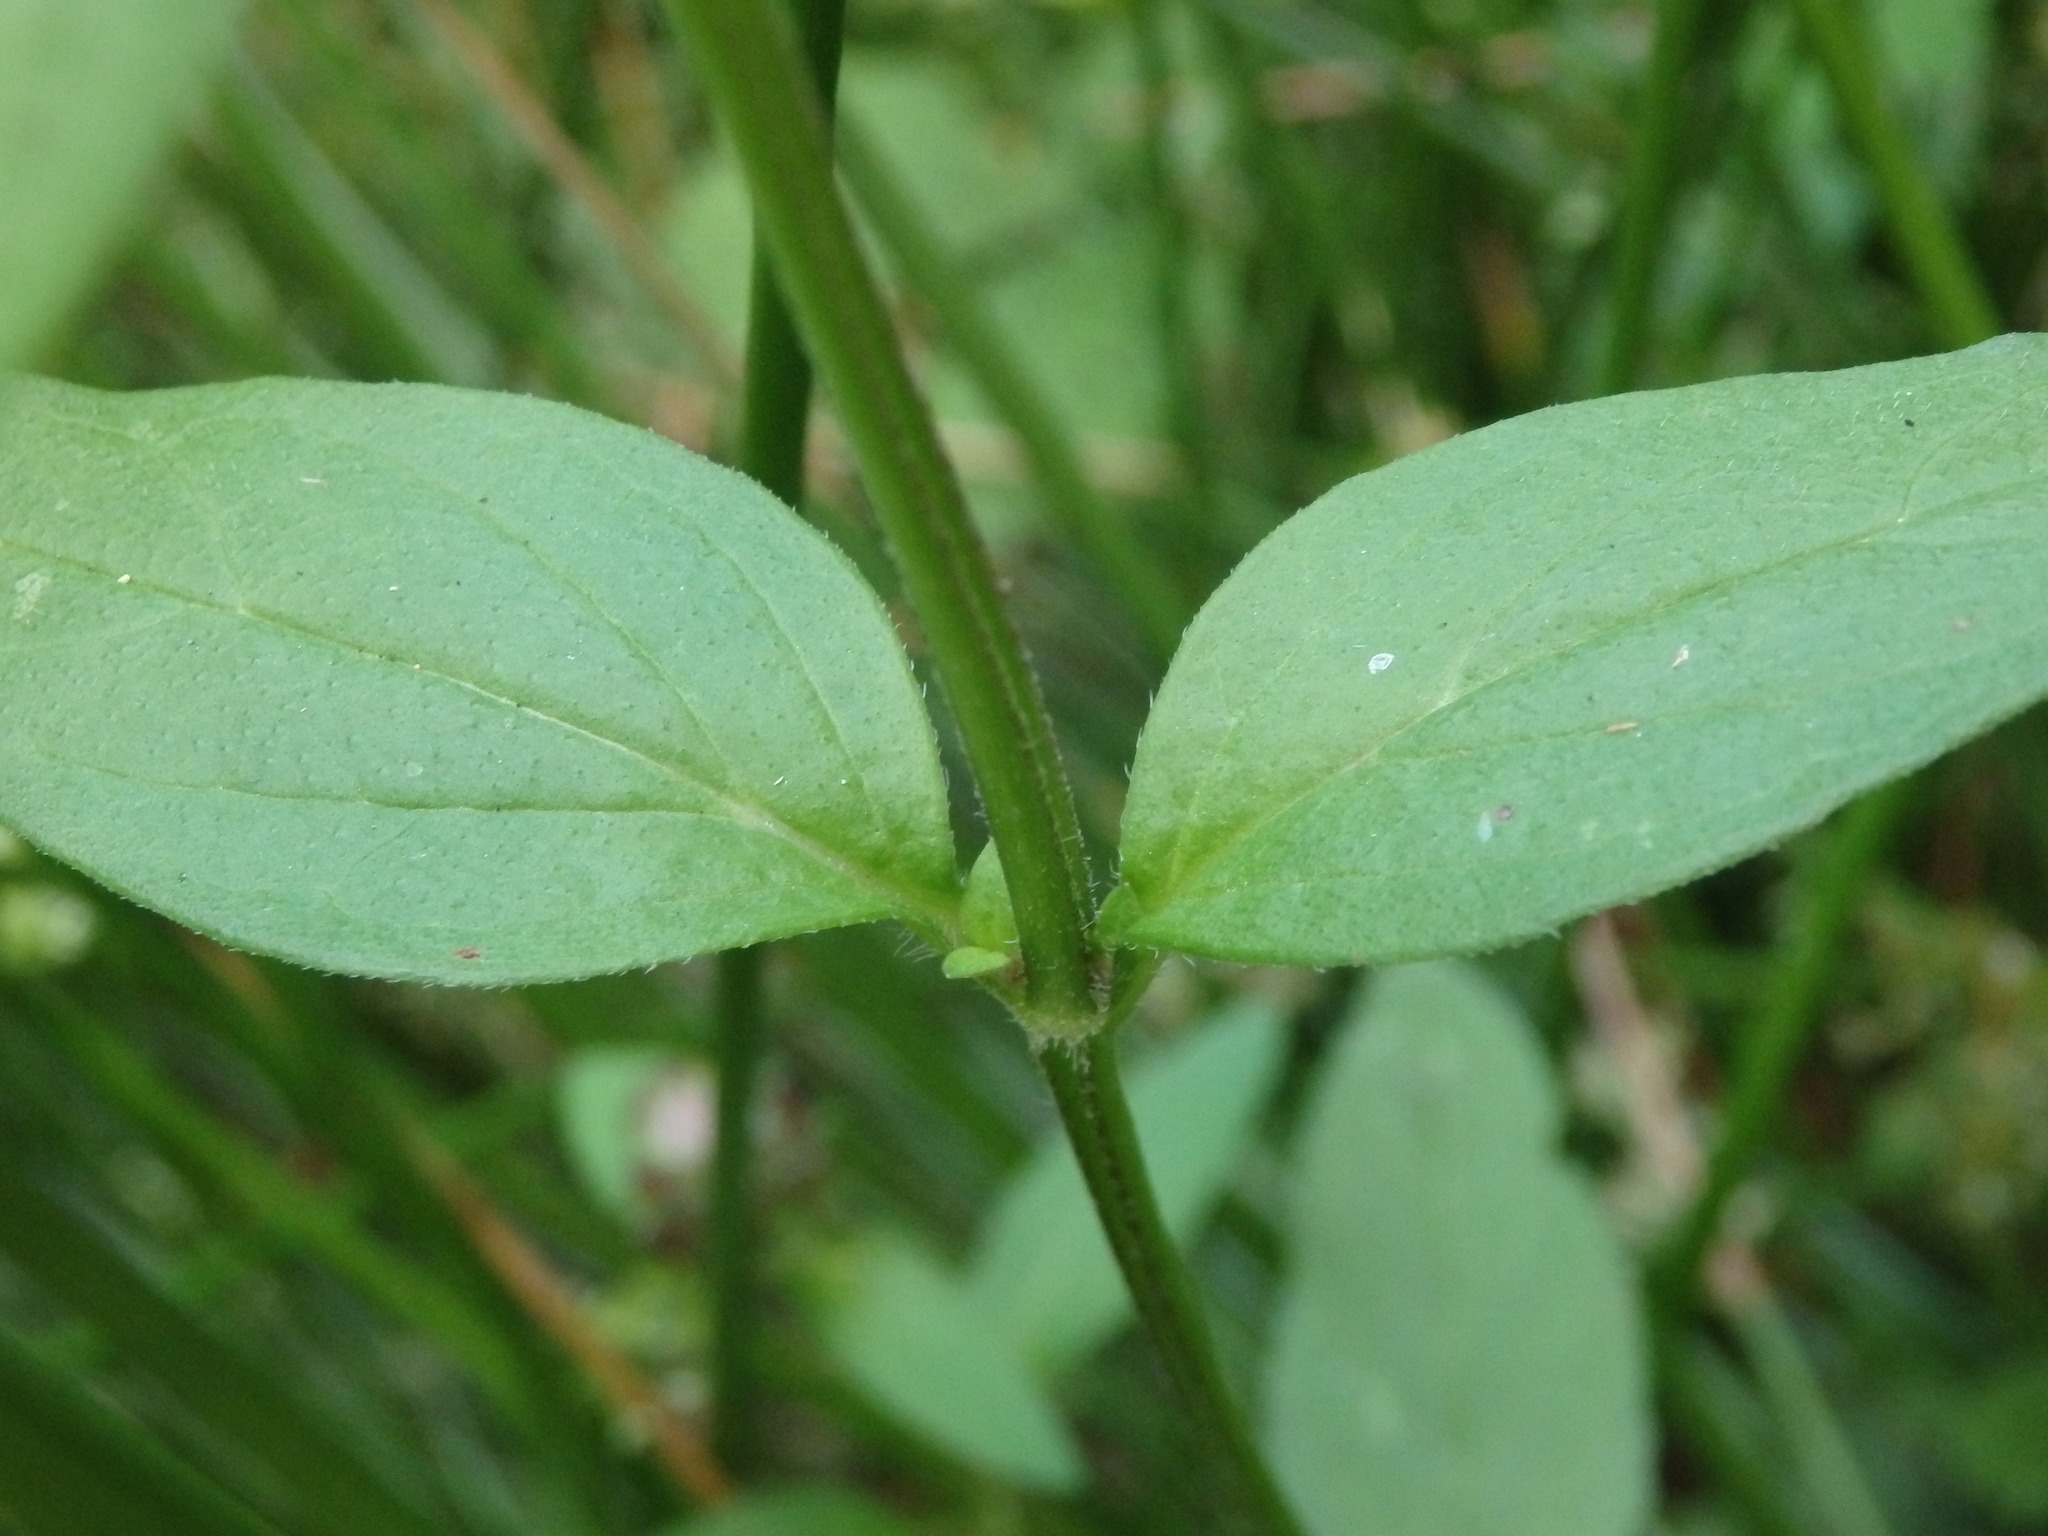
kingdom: Plantae
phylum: Tracheophyta
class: Magnoliopsida
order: Lamiales
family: Lamiaceae
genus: Prunella
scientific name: Prunella vulgaris
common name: Heal-all
